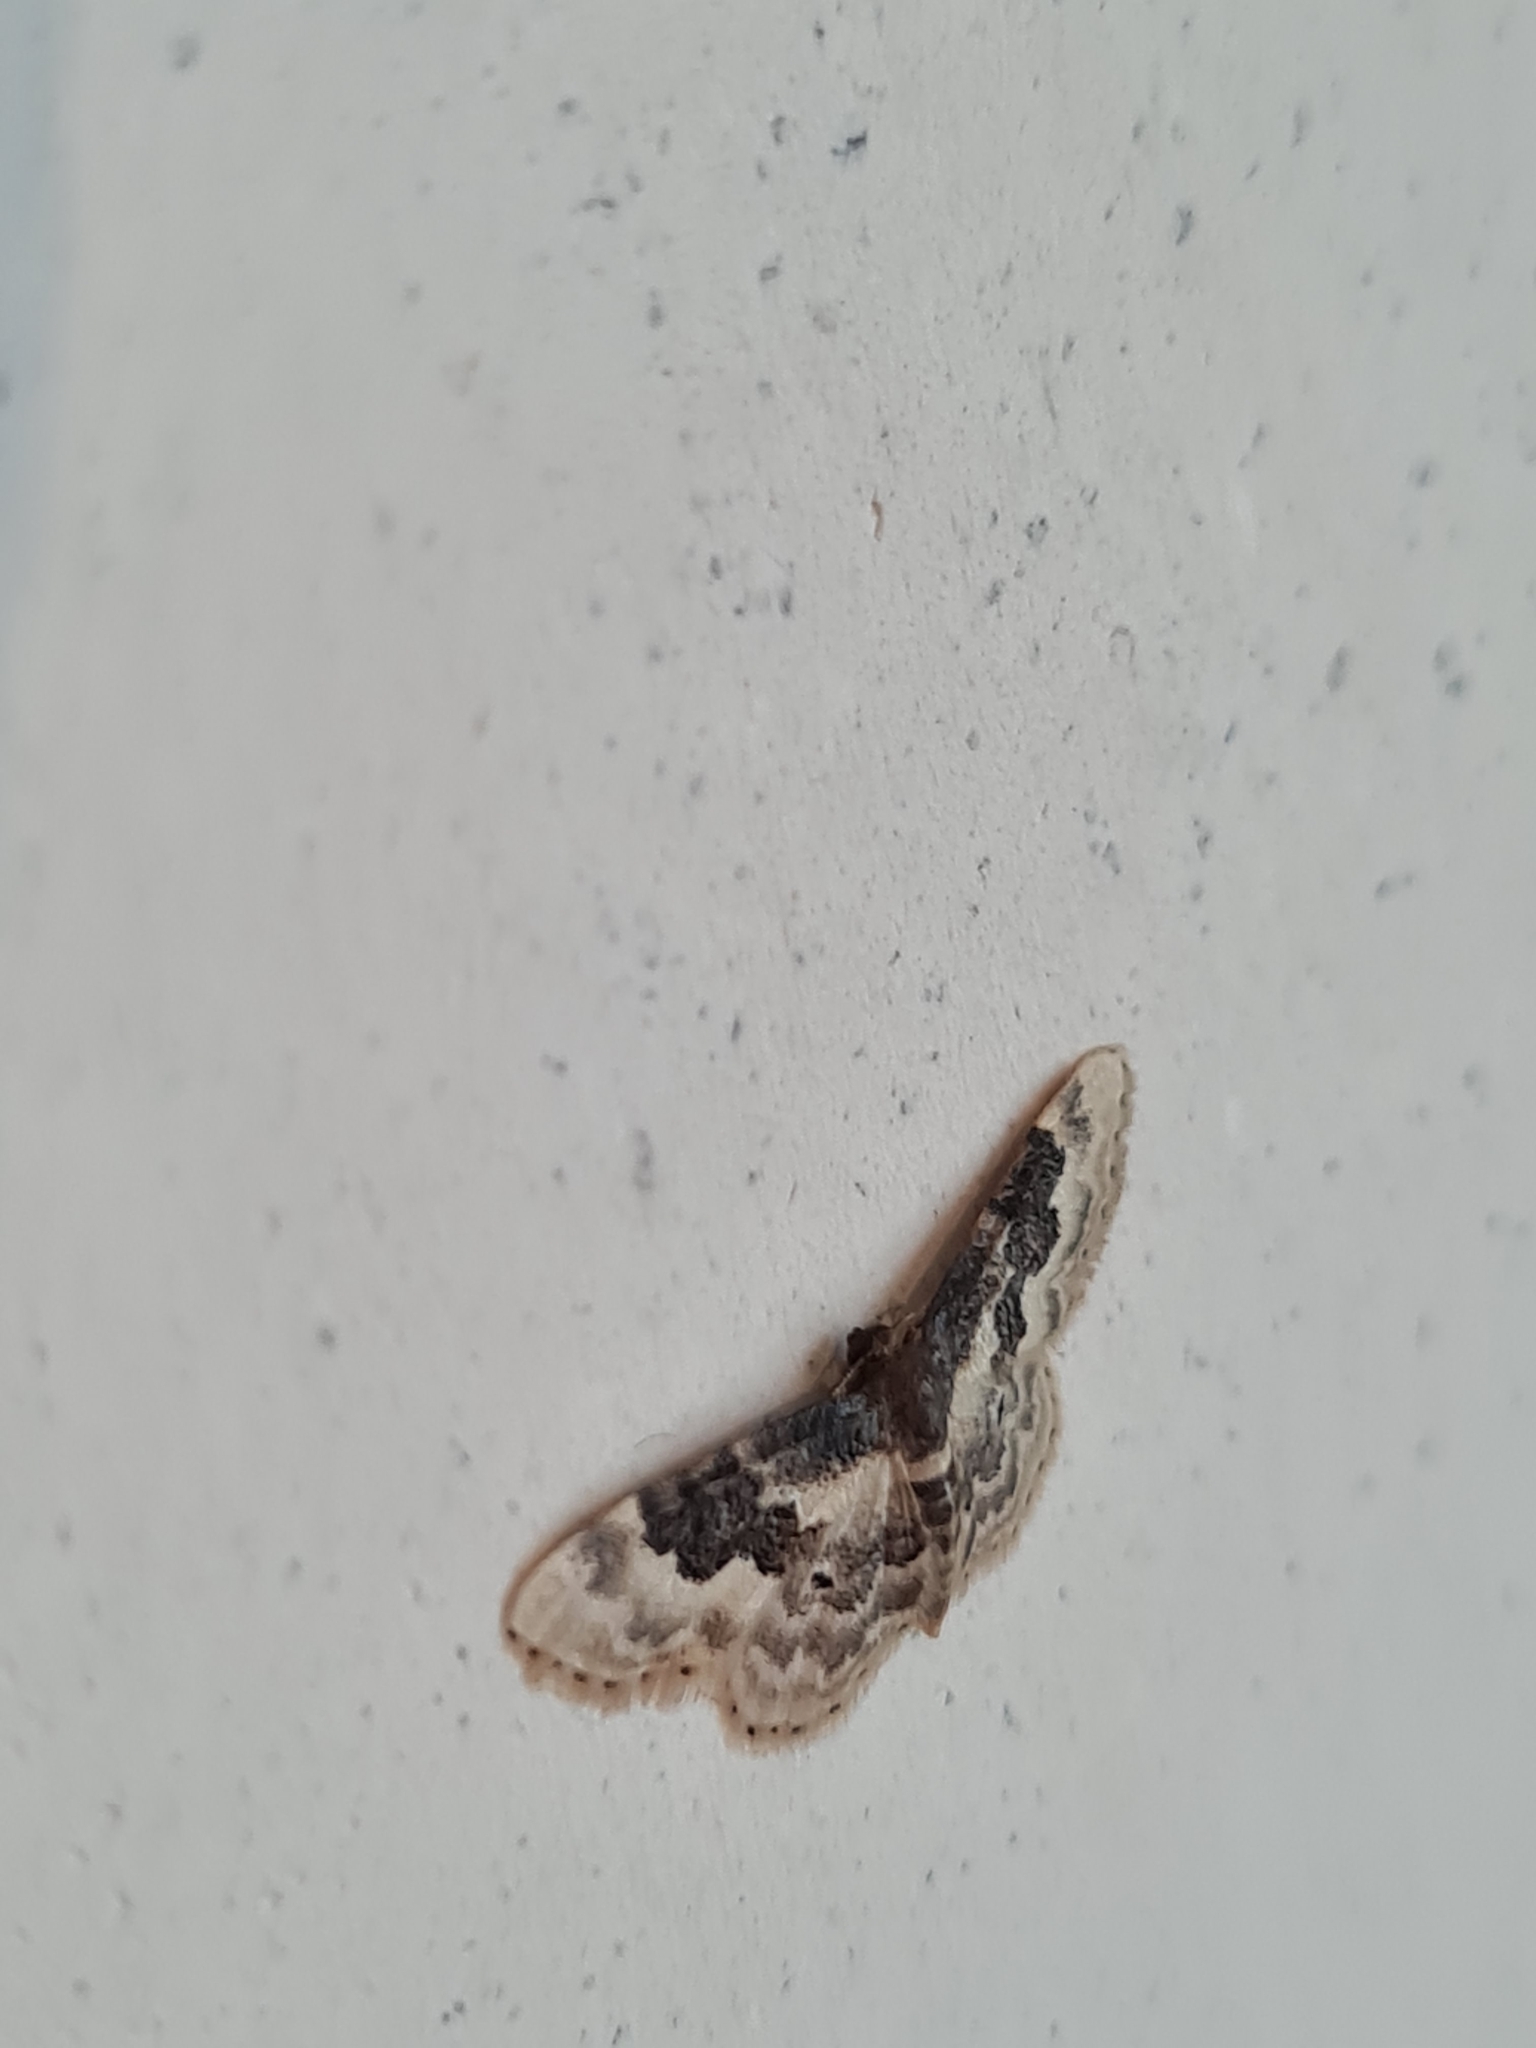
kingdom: Animalia
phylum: Arthropoda
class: Insecta
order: Lepidoptera
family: Geometridae
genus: Idaea
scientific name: Idaea rusticata
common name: Least carpet
